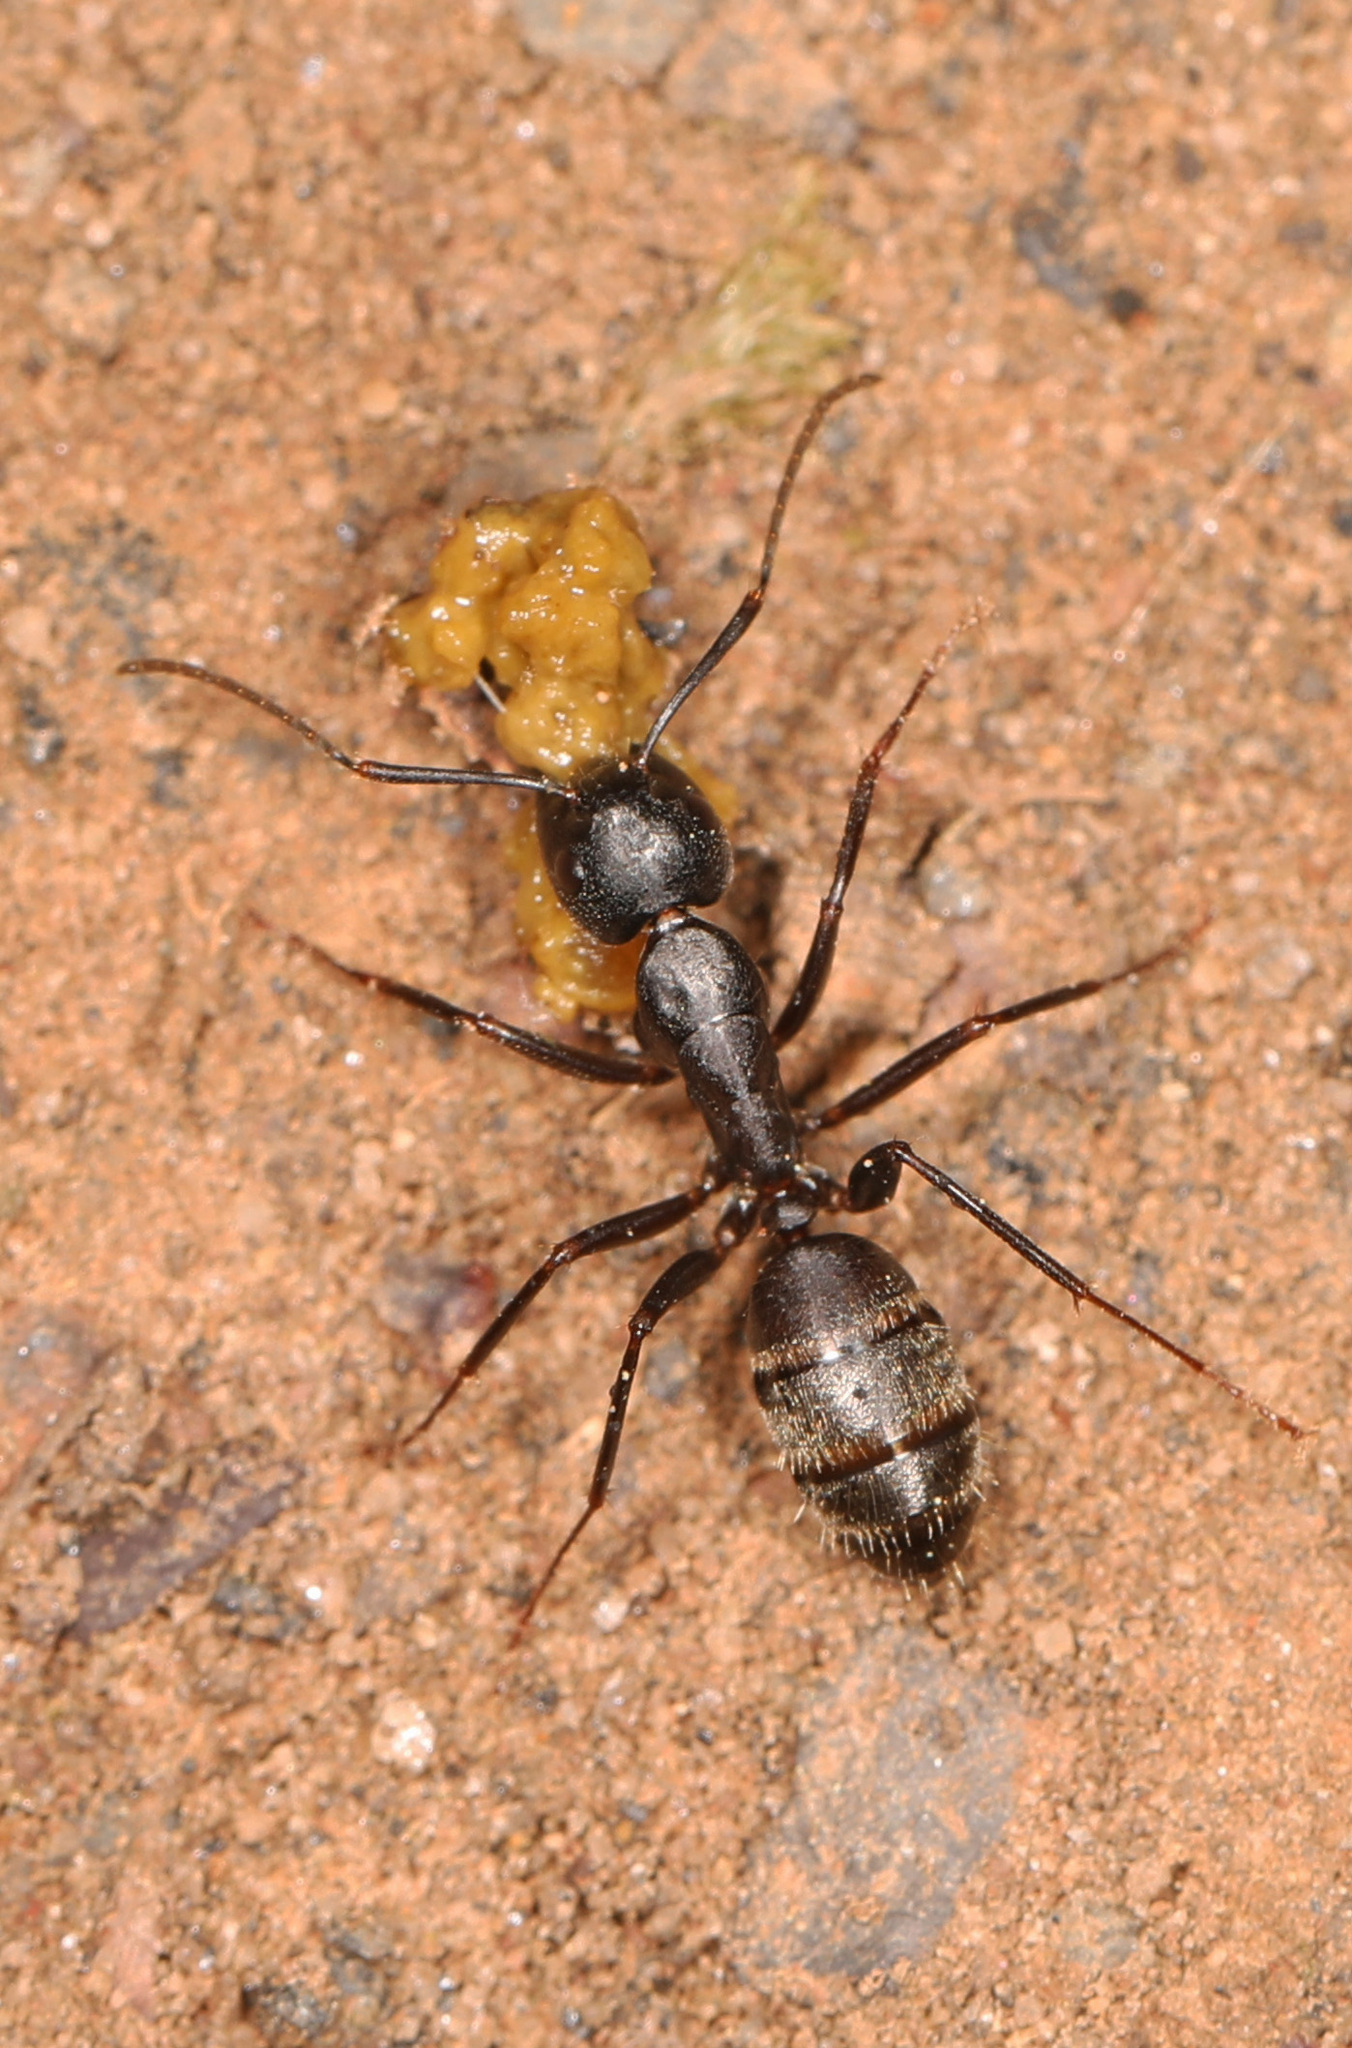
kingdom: Animalia
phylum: Arthropoda
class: Insecta
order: Hymenoptera
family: Formicidae
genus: Camponotus
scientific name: Camponotus pennsylvanicus
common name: Black carpenter ant
